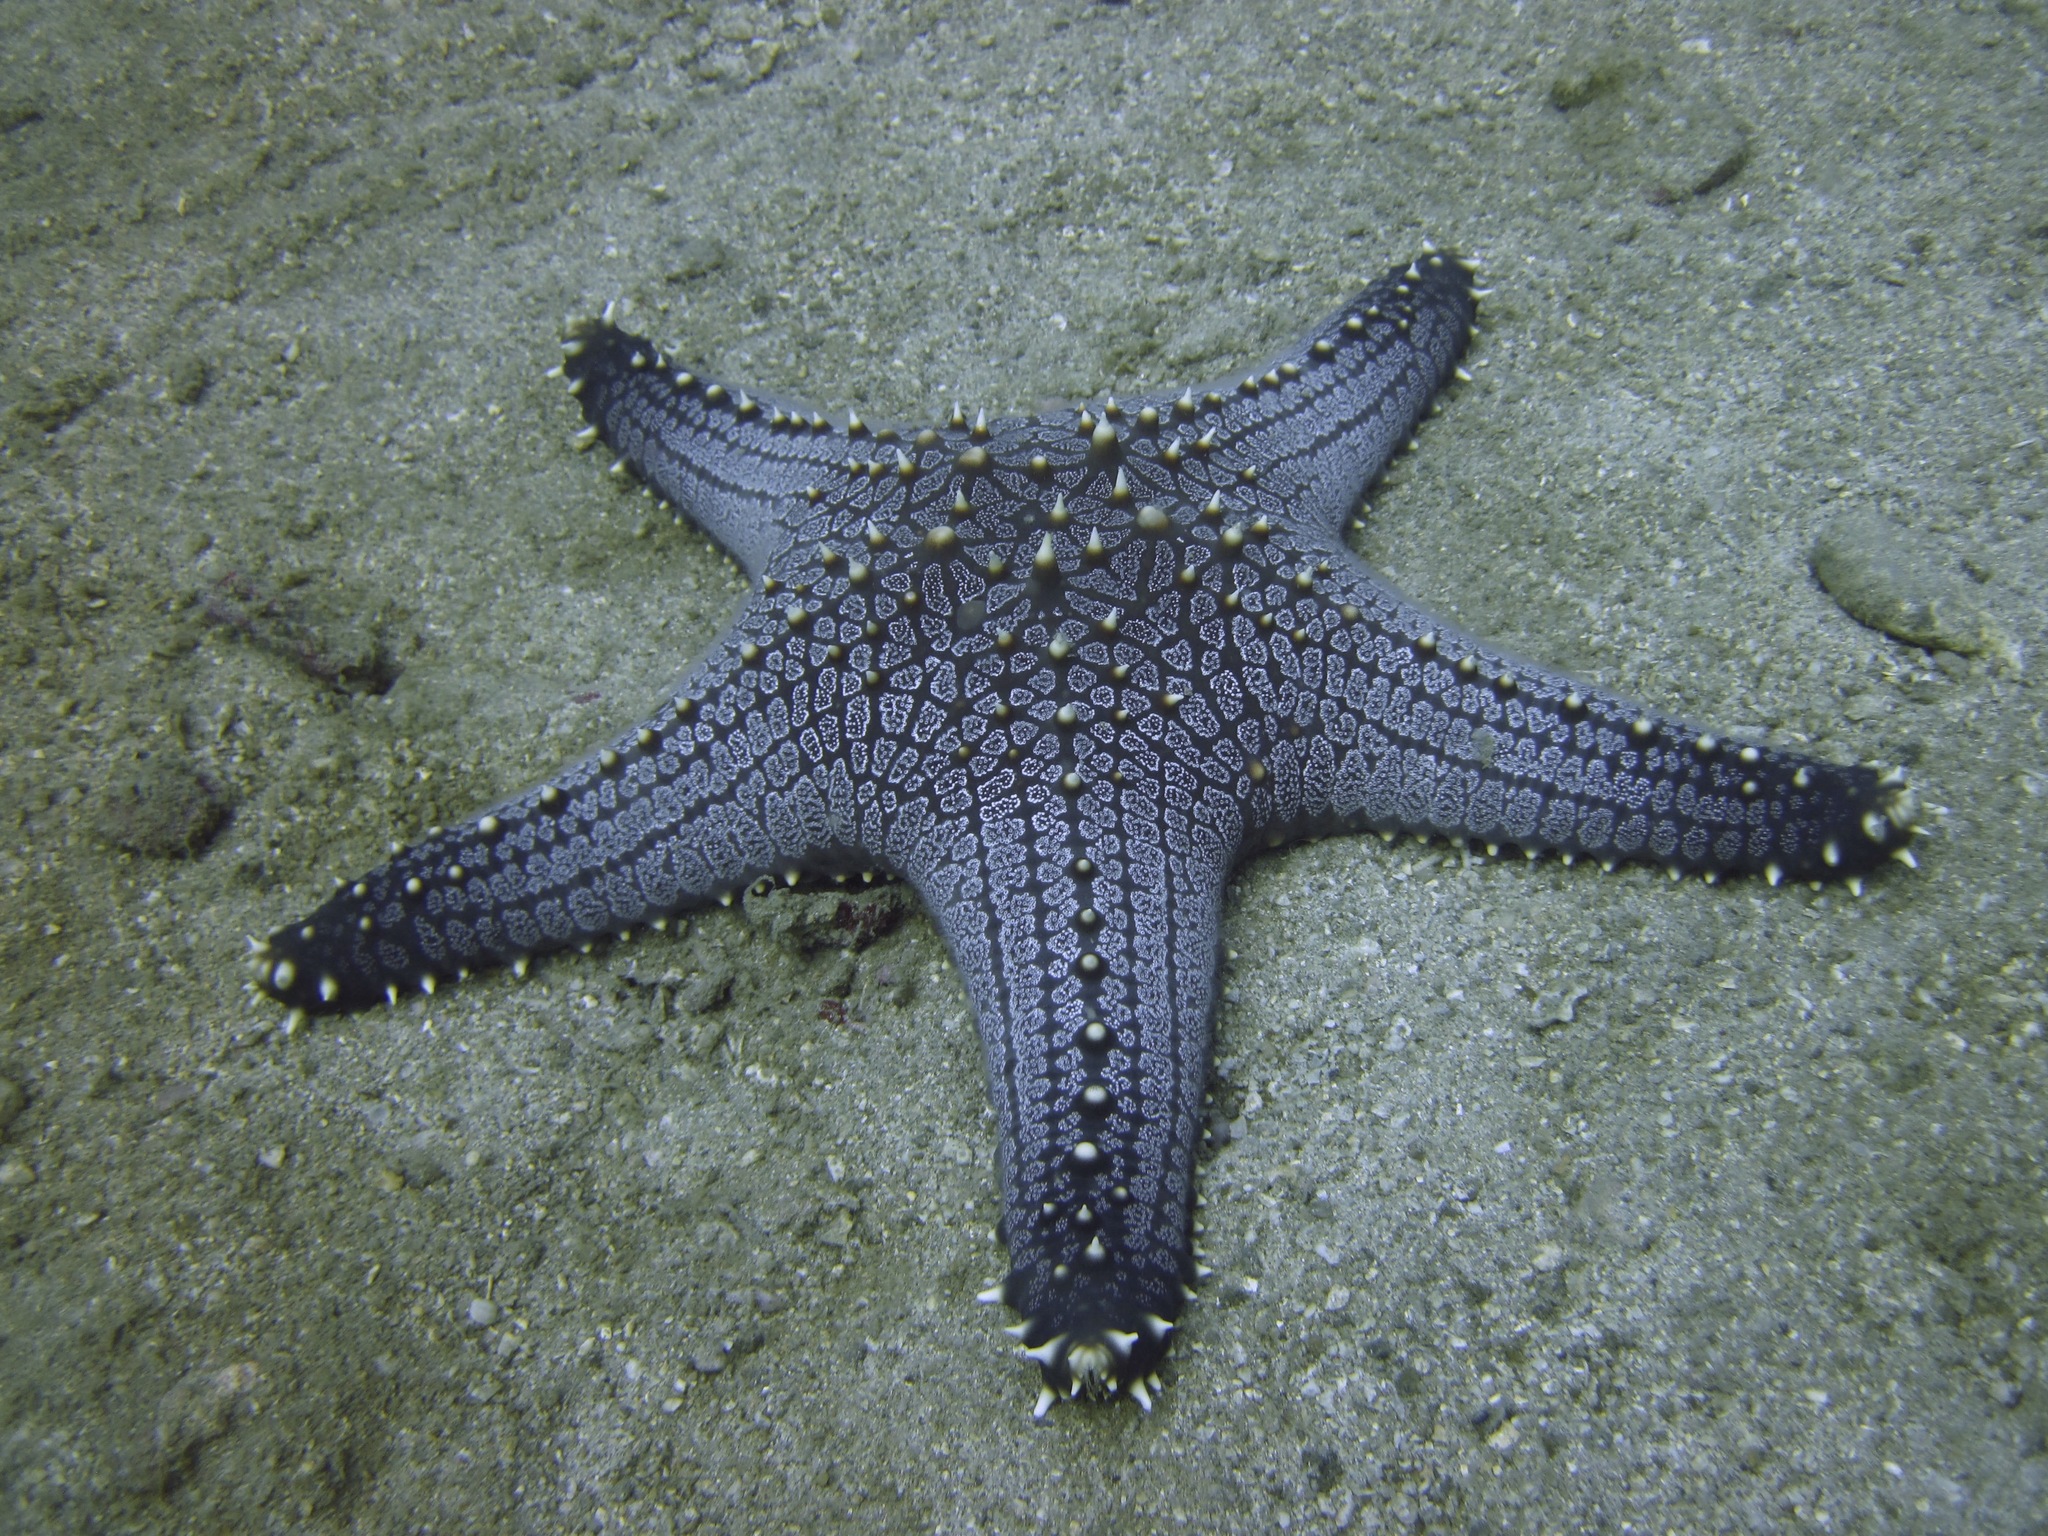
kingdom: Animalia
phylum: Echinodermata
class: Asteroidea
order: Valvatida
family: Oreasteridae
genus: Pentaceraster
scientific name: Pentaceraster sibogae
